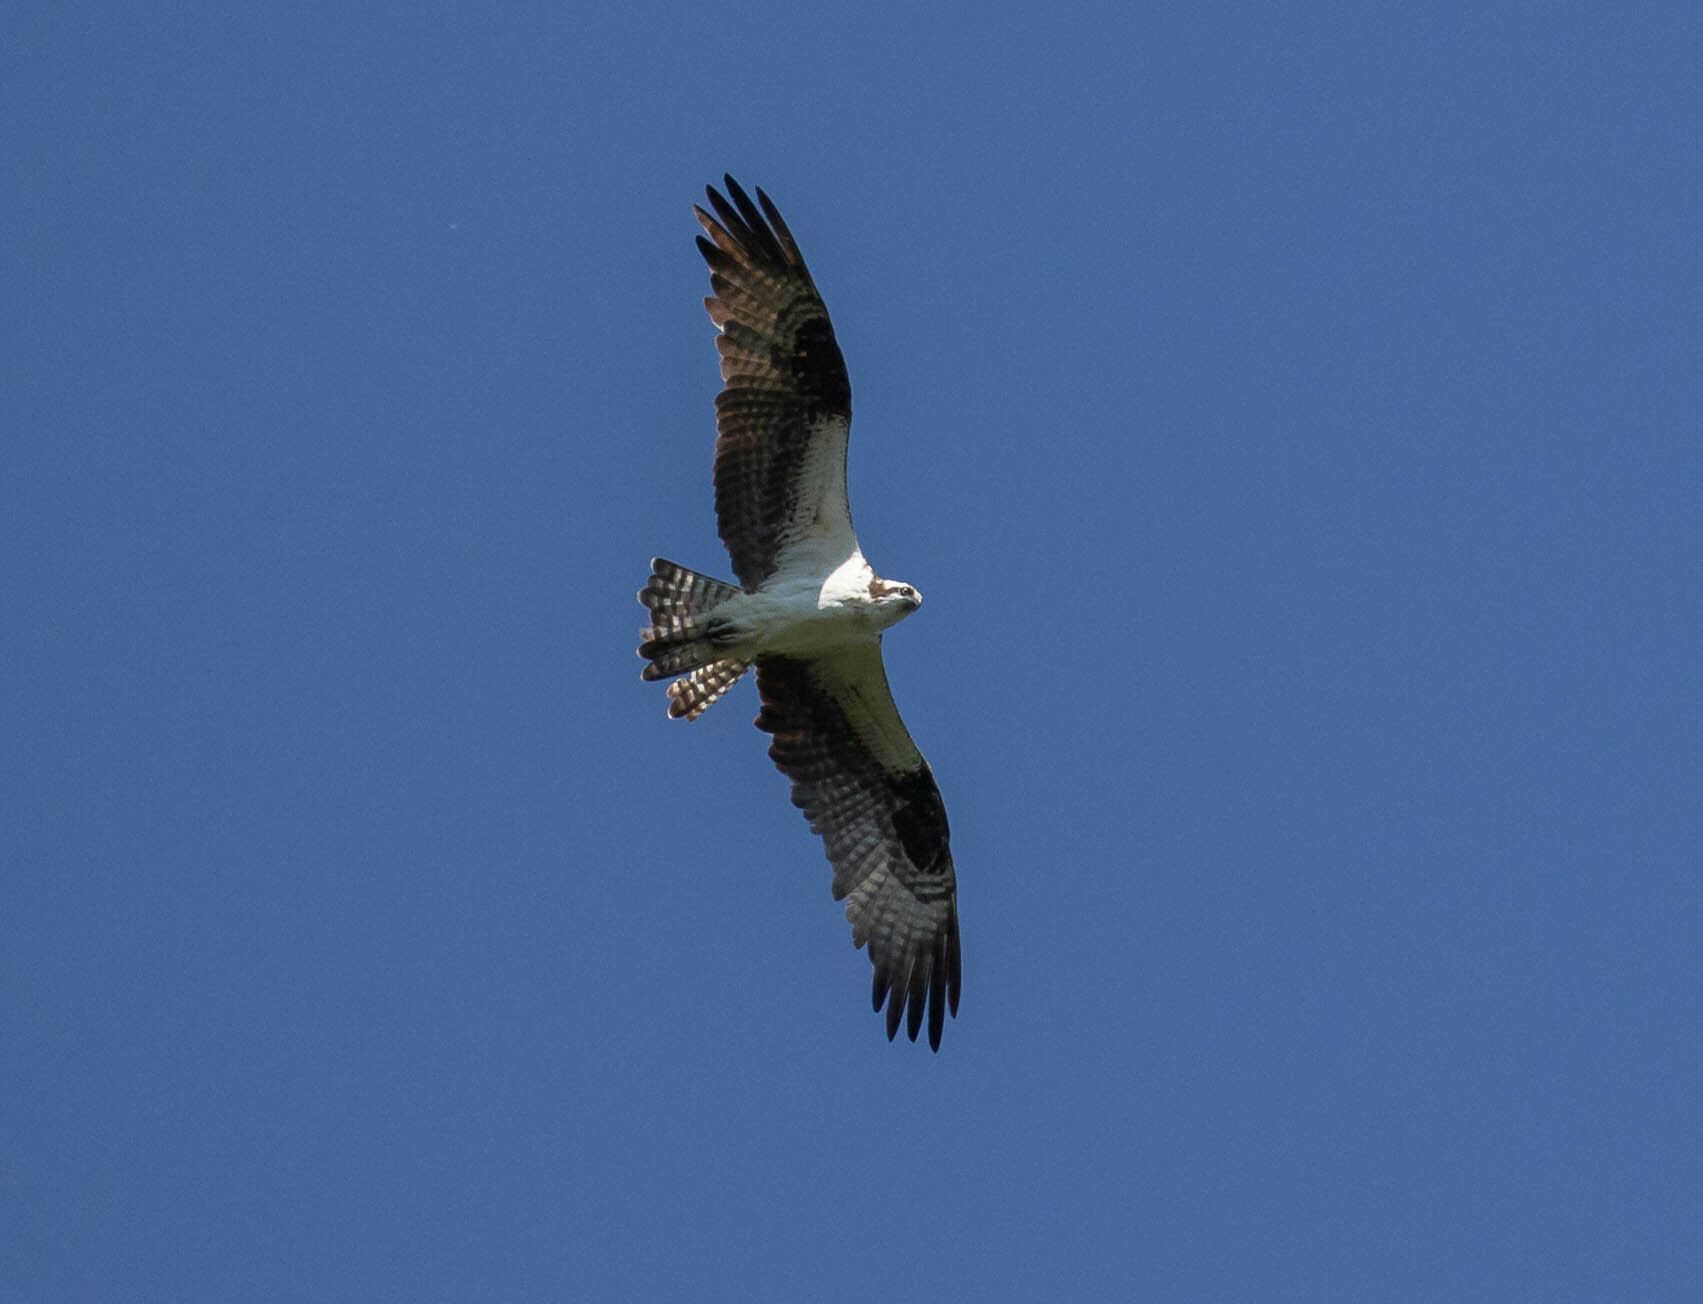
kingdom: Animalia
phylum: Chordata
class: Aves
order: Accipitriformes
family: Pandionidae
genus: Pandion
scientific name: Pandion haliaetus
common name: Osprey
